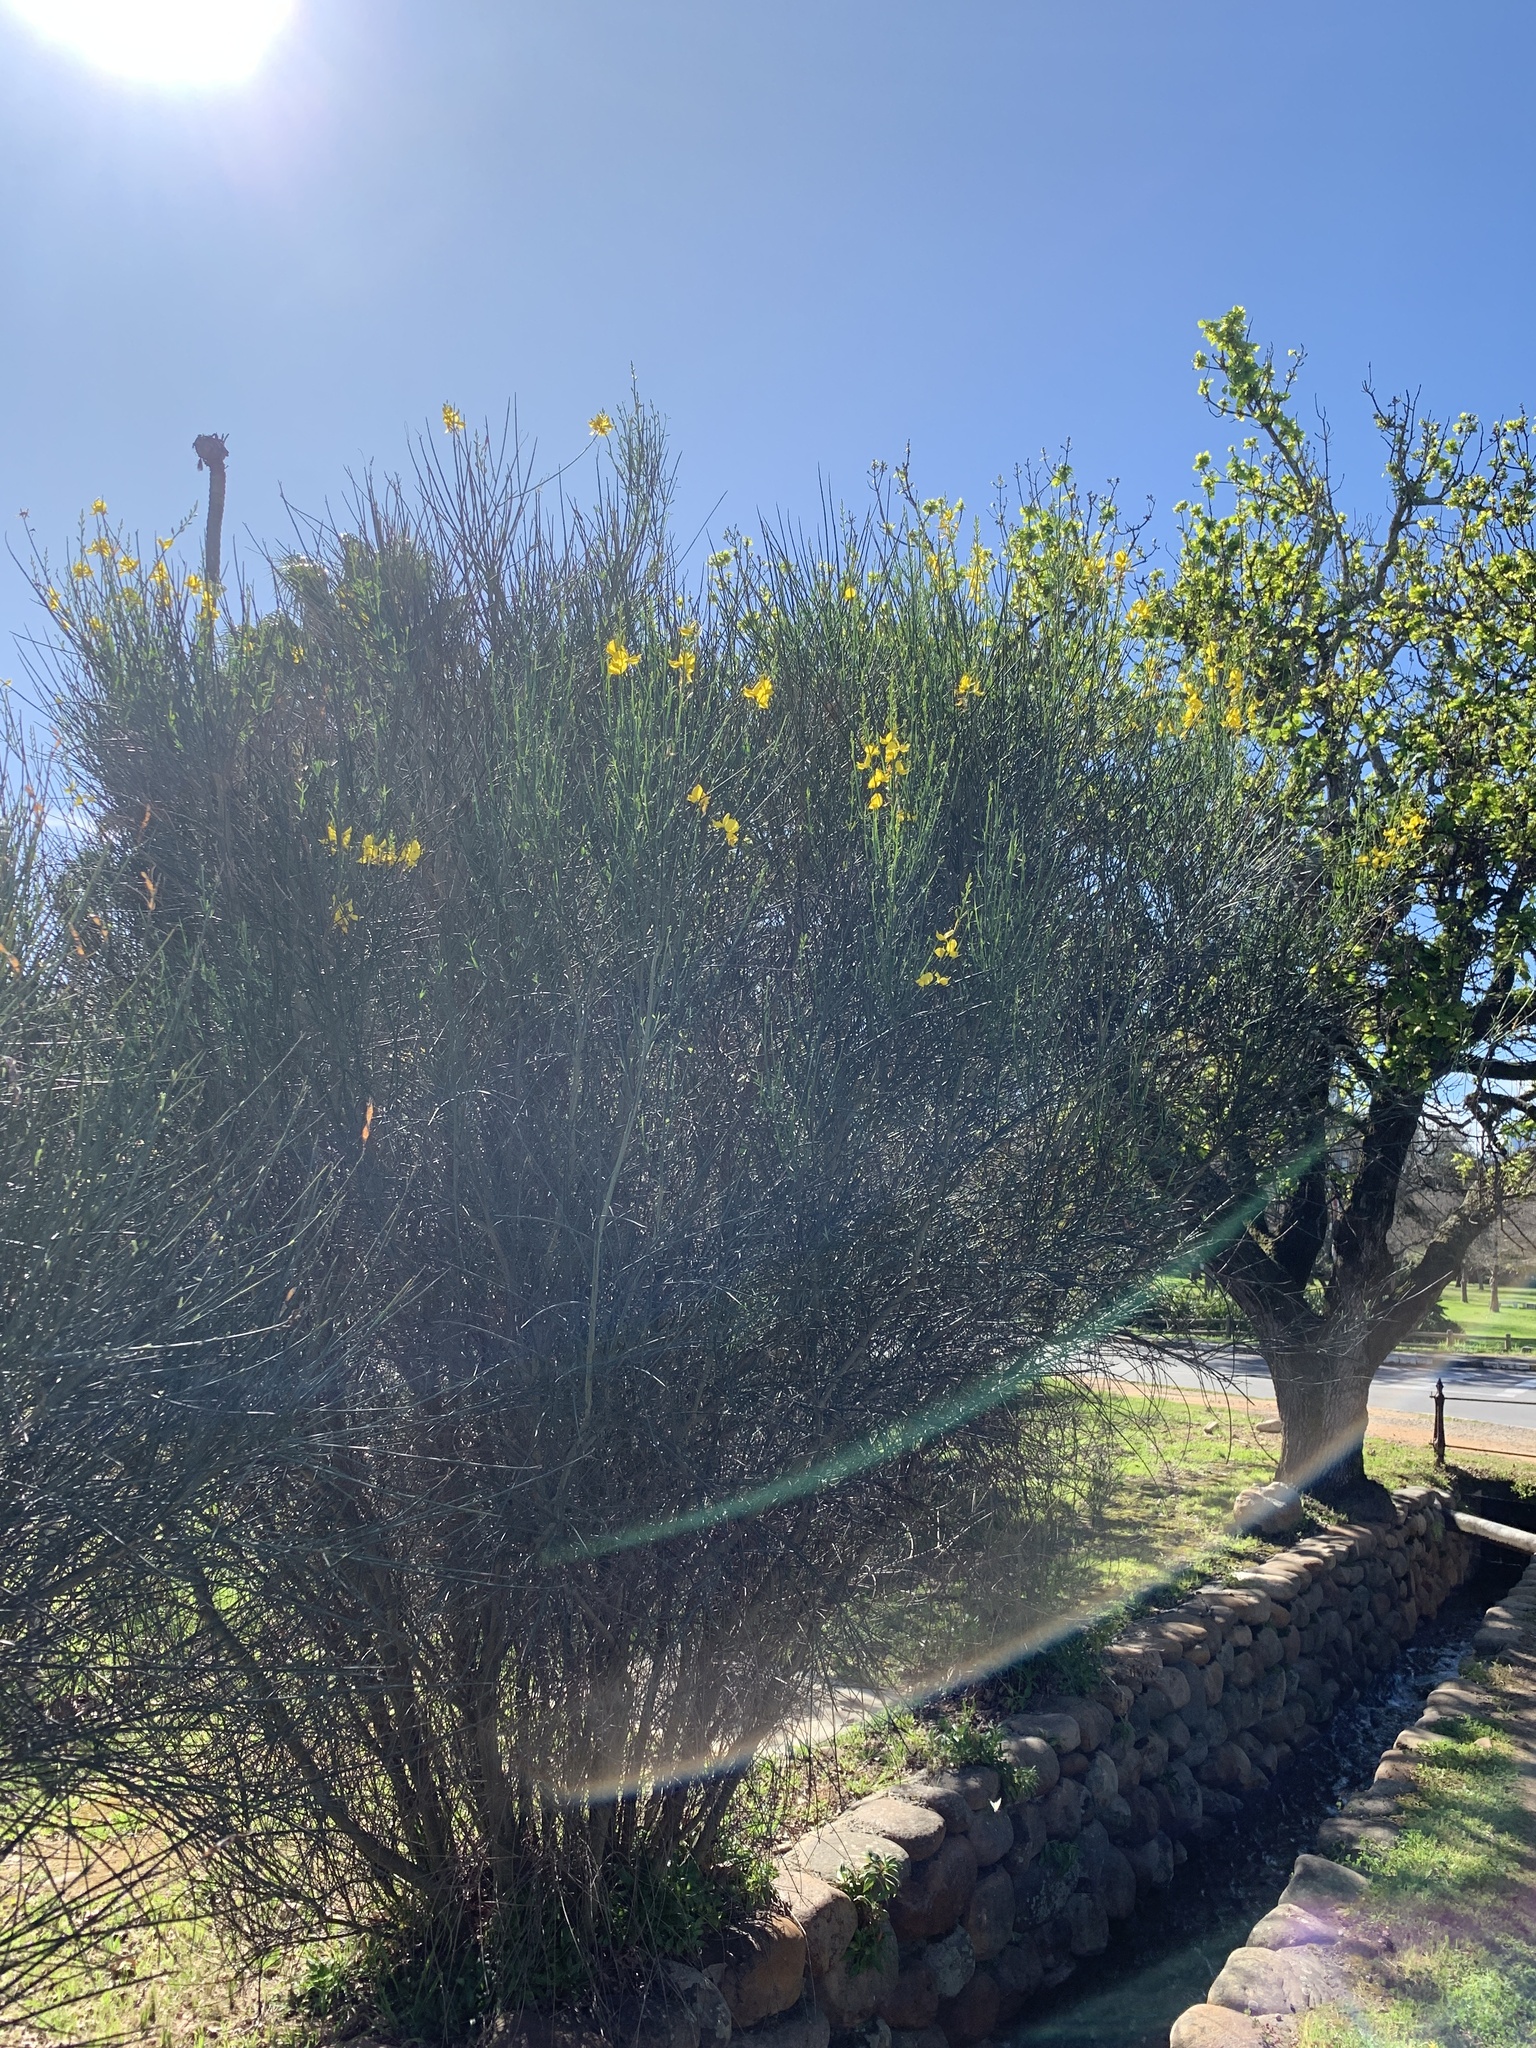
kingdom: Plantae
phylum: Tracheophyta
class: Magnoliopsida
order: Fabales
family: Fabaceae
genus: Spartium
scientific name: Spartium junceum
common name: Spanish broom
